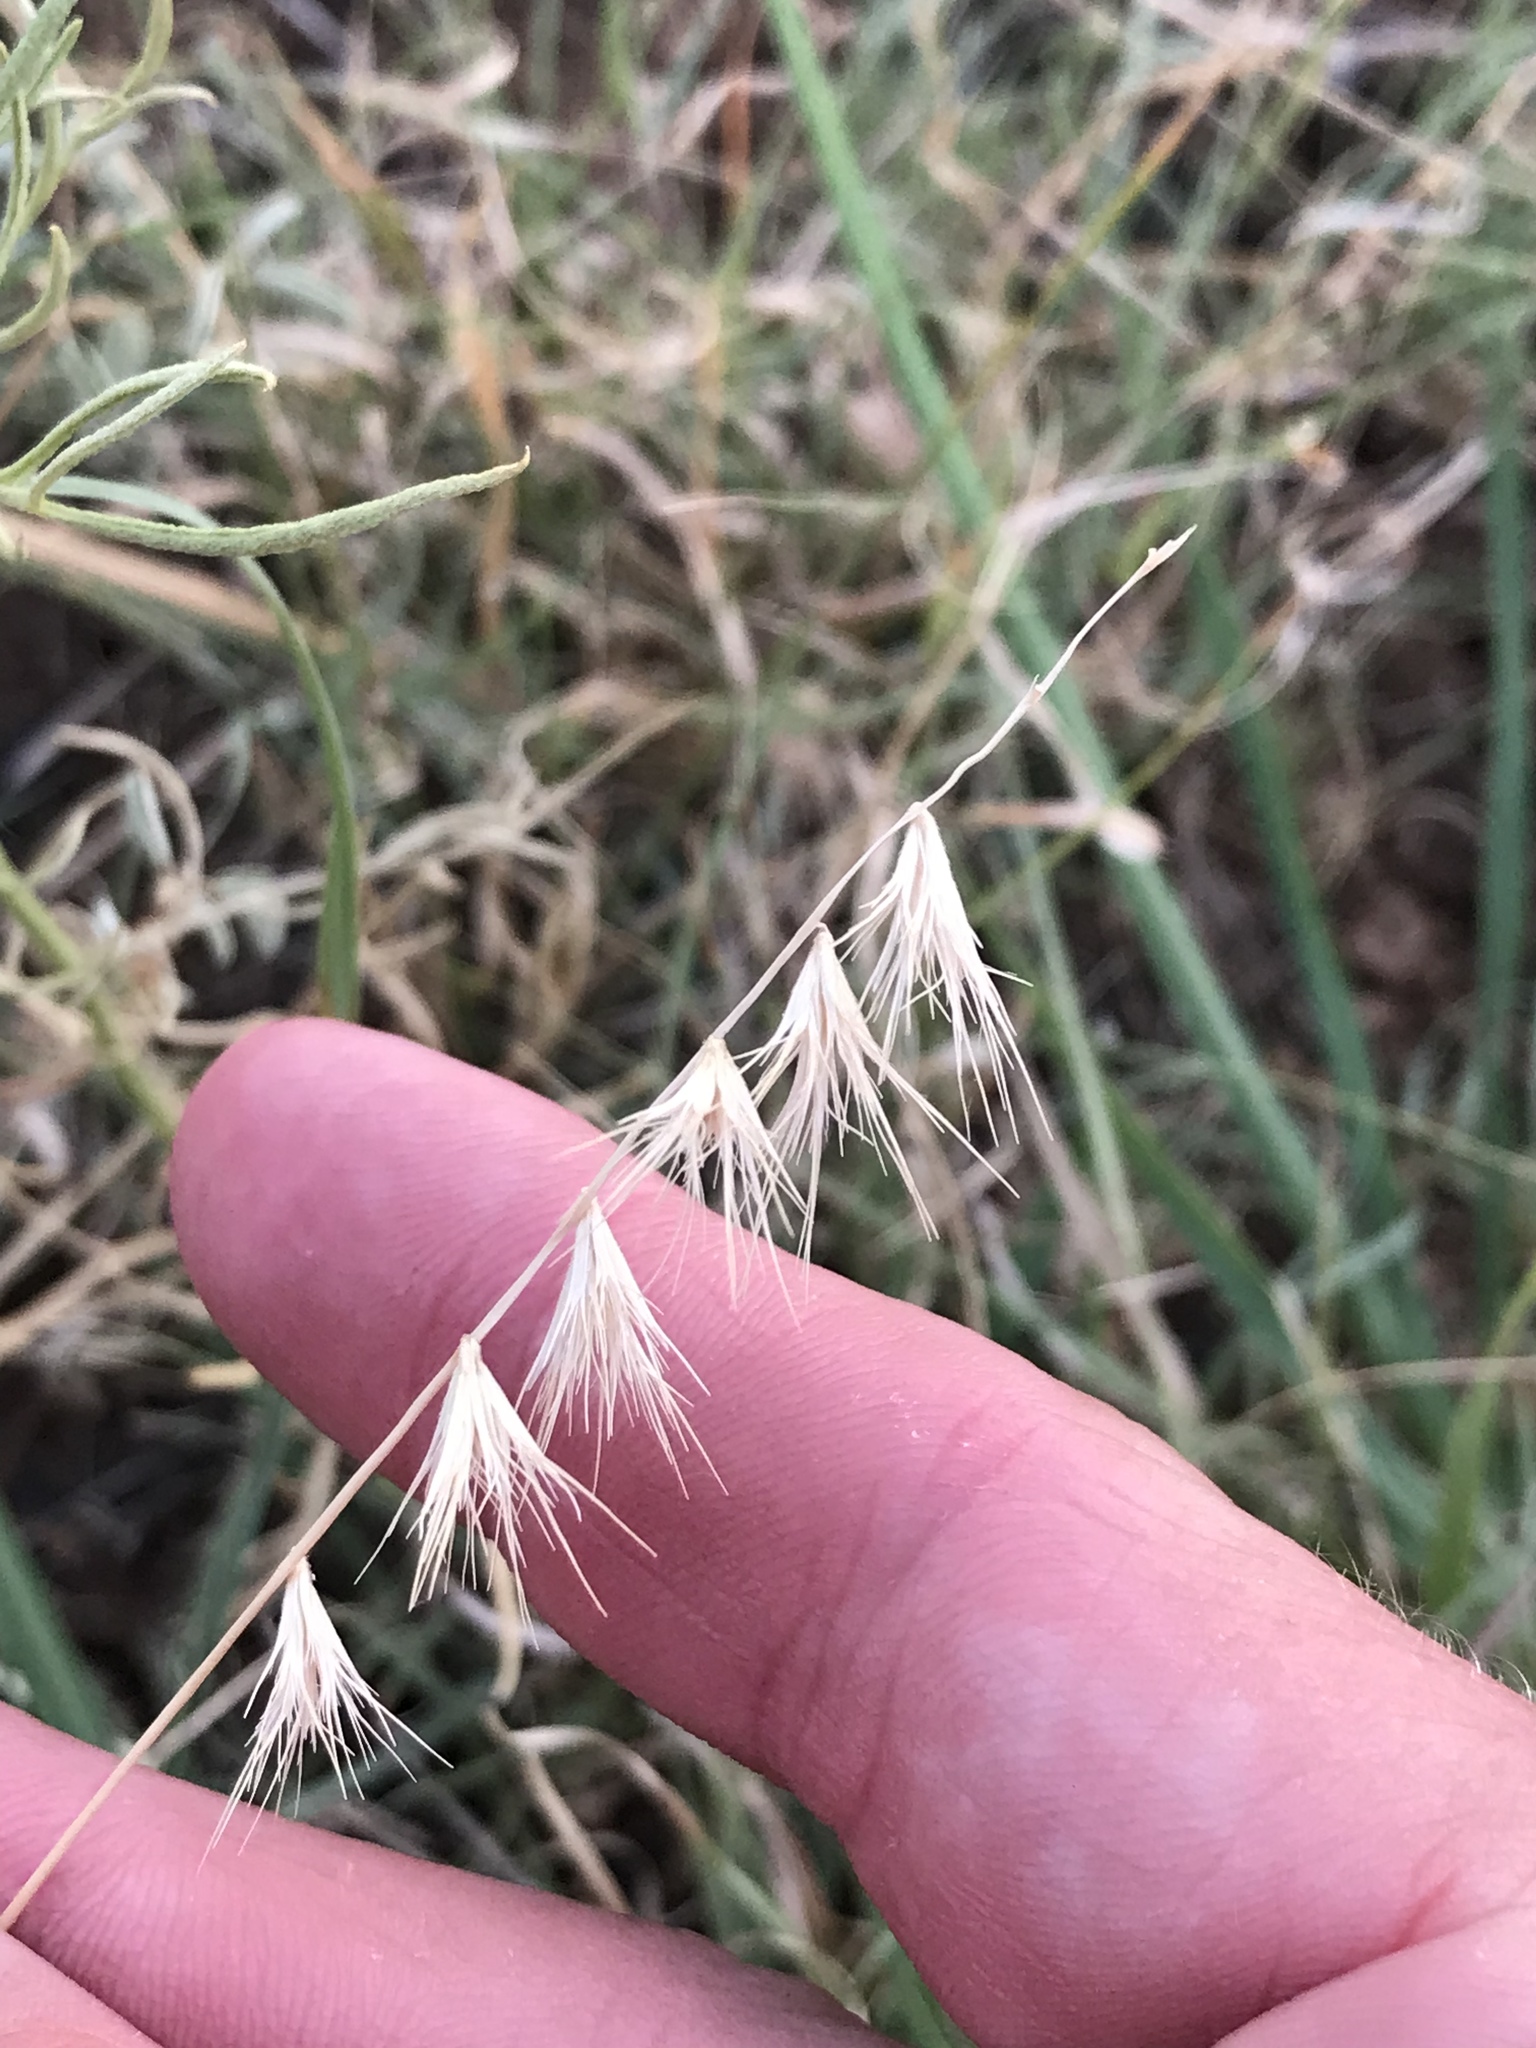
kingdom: Plantae
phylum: Tracheophyta
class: Liliopsida
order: Poales
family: Poaceae
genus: Bouteloua
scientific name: Bouteloua rigidiseta
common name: Texas grama
